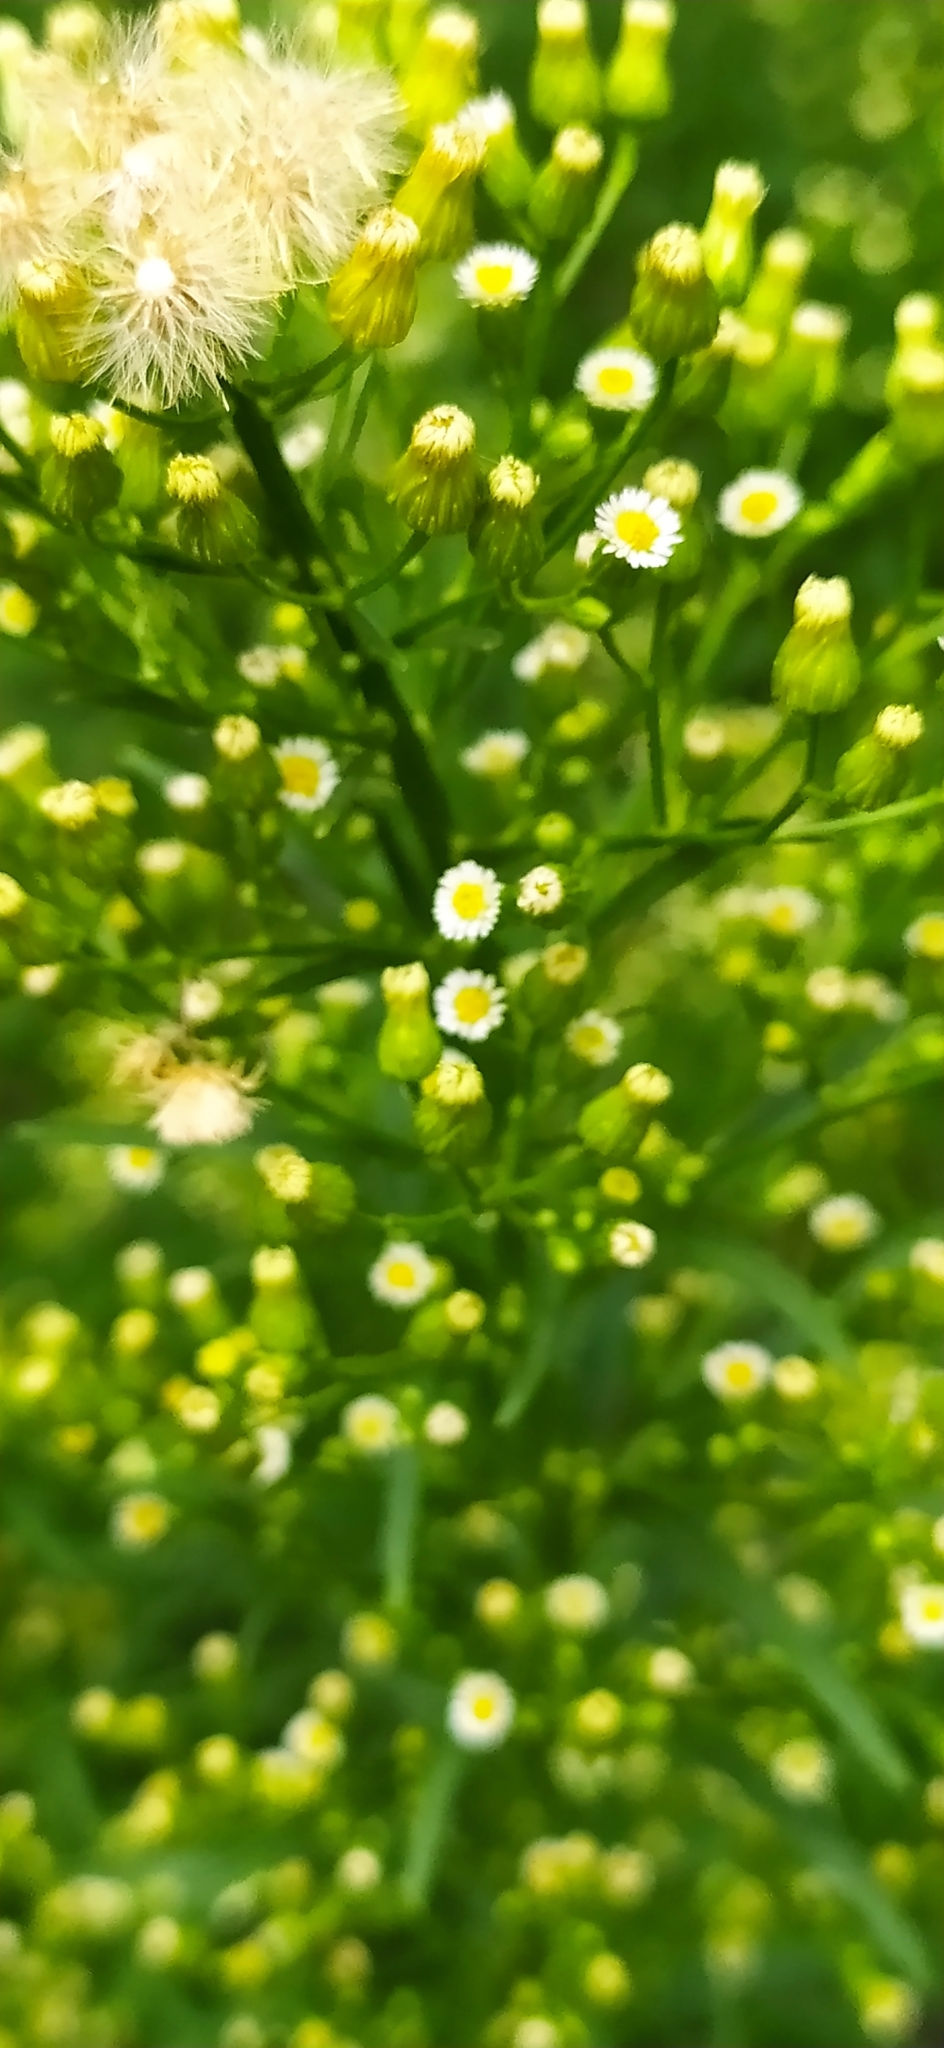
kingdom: Plantae
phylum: Tracheophyta
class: Magnoliopsida
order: Asterales
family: Asteraceae
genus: Erigeron
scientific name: Erigeron canadensis
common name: Canadian fleabane
